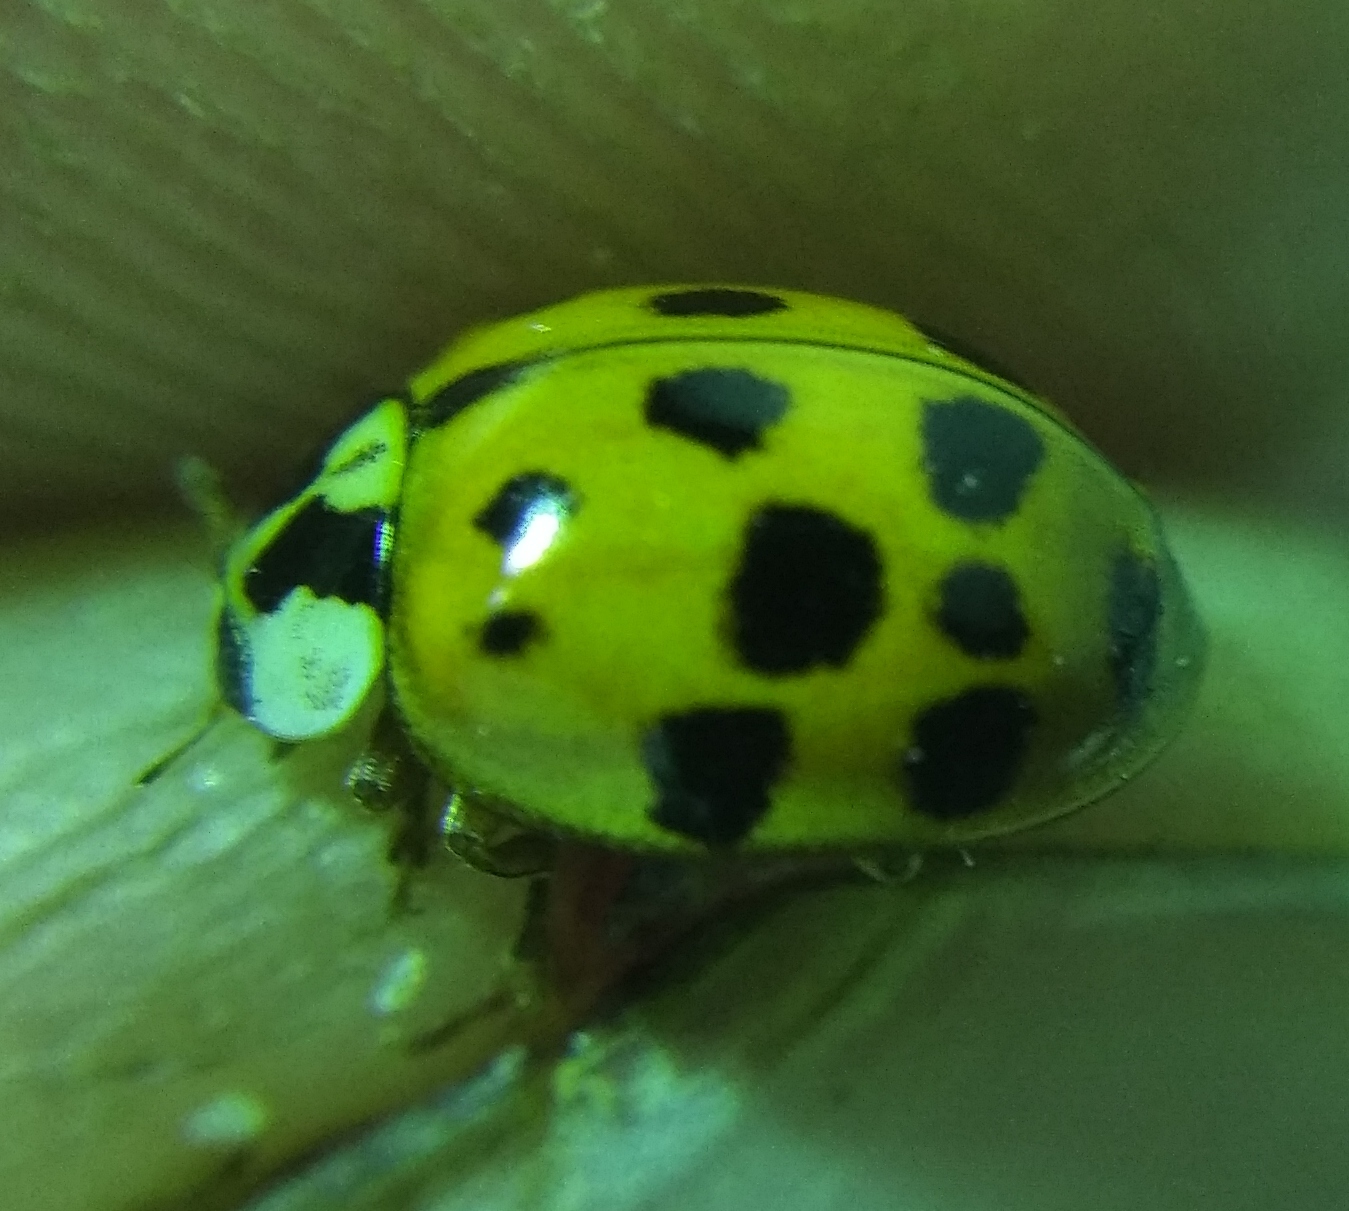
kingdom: Animalia
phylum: Arthropoda
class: Insecta
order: Coleoptera
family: Coccinellidae
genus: Harmonia
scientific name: Harmonia axyridis
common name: Harlequin ladybird
